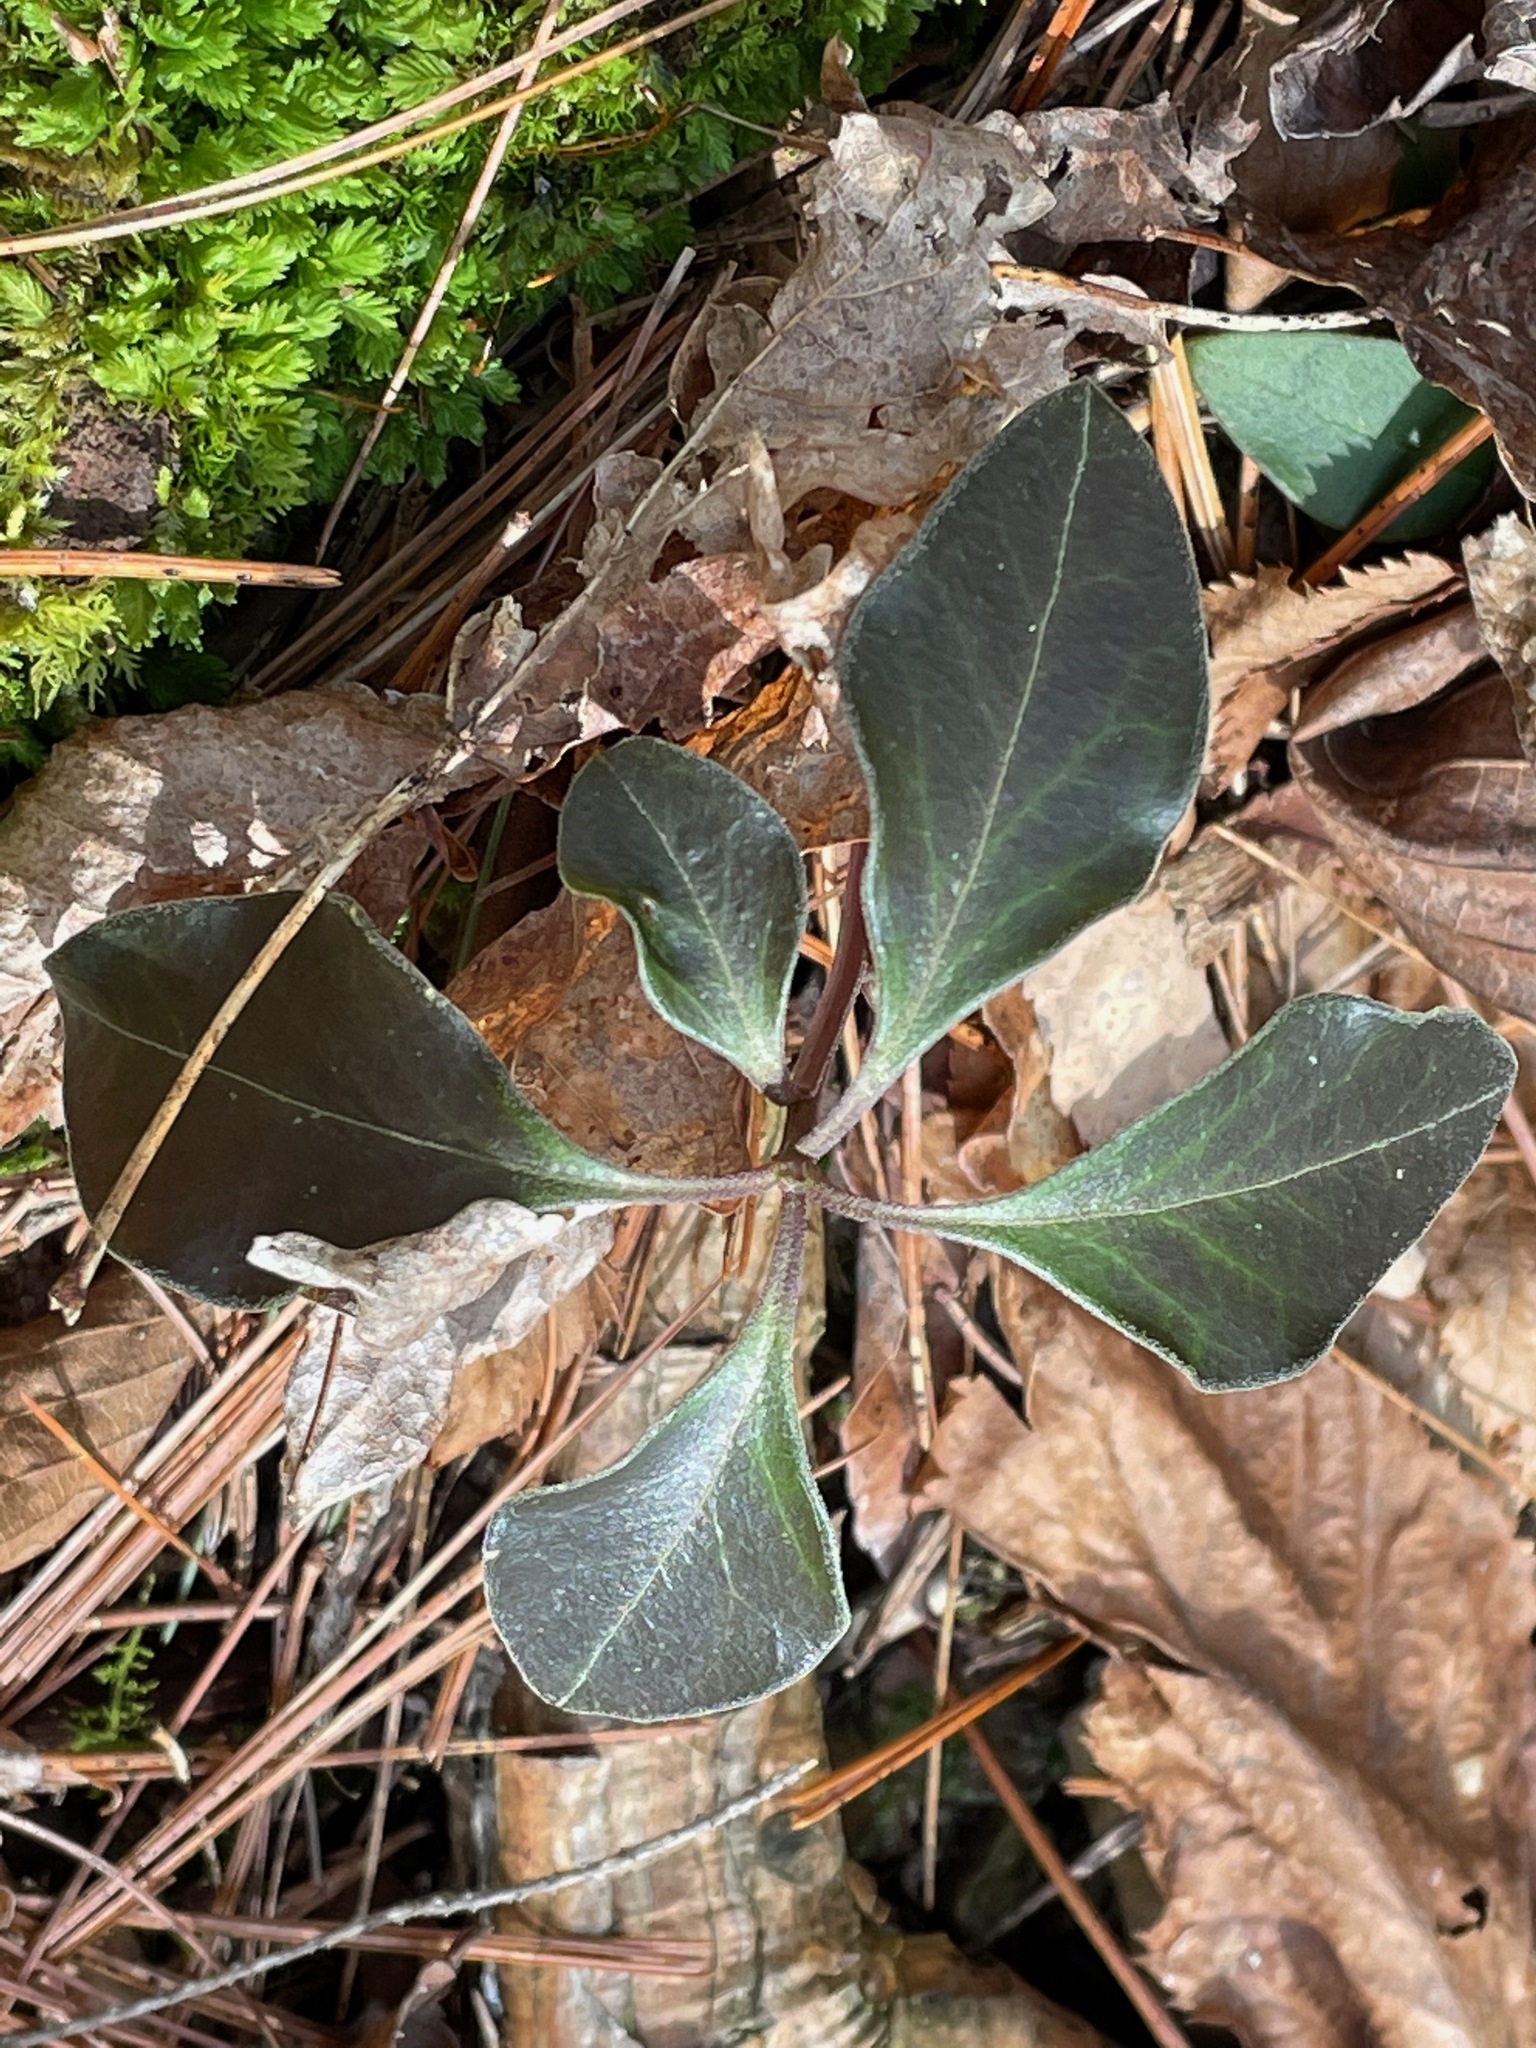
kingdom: Plantae
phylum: Tracheophyta
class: Magnoliopsida
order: Fabales
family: Polygalaceae
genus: Polygaloides
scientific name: Polygaloides paucifolia
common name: Bird-on-the-wing
